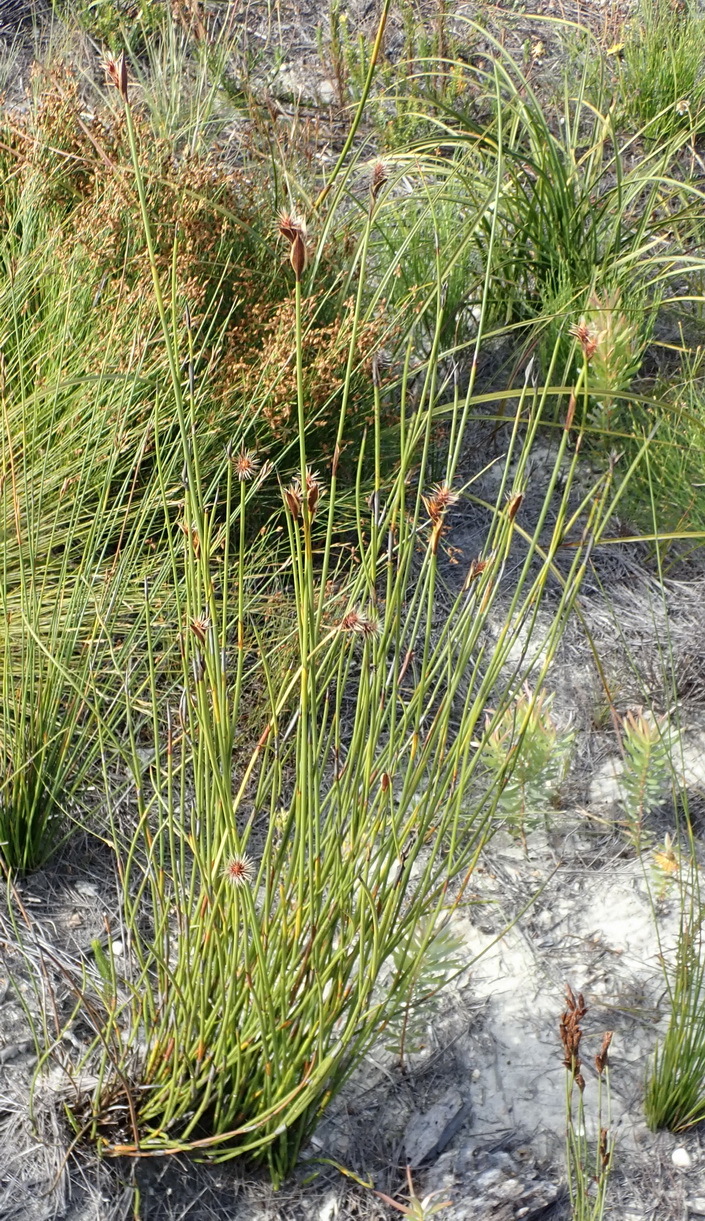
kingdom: Plantae
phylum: Tracheophyta
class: Liliopsida
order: Poales
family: Restionaceae
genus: Hypodiscus
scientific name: Hypodiscus aristatus
